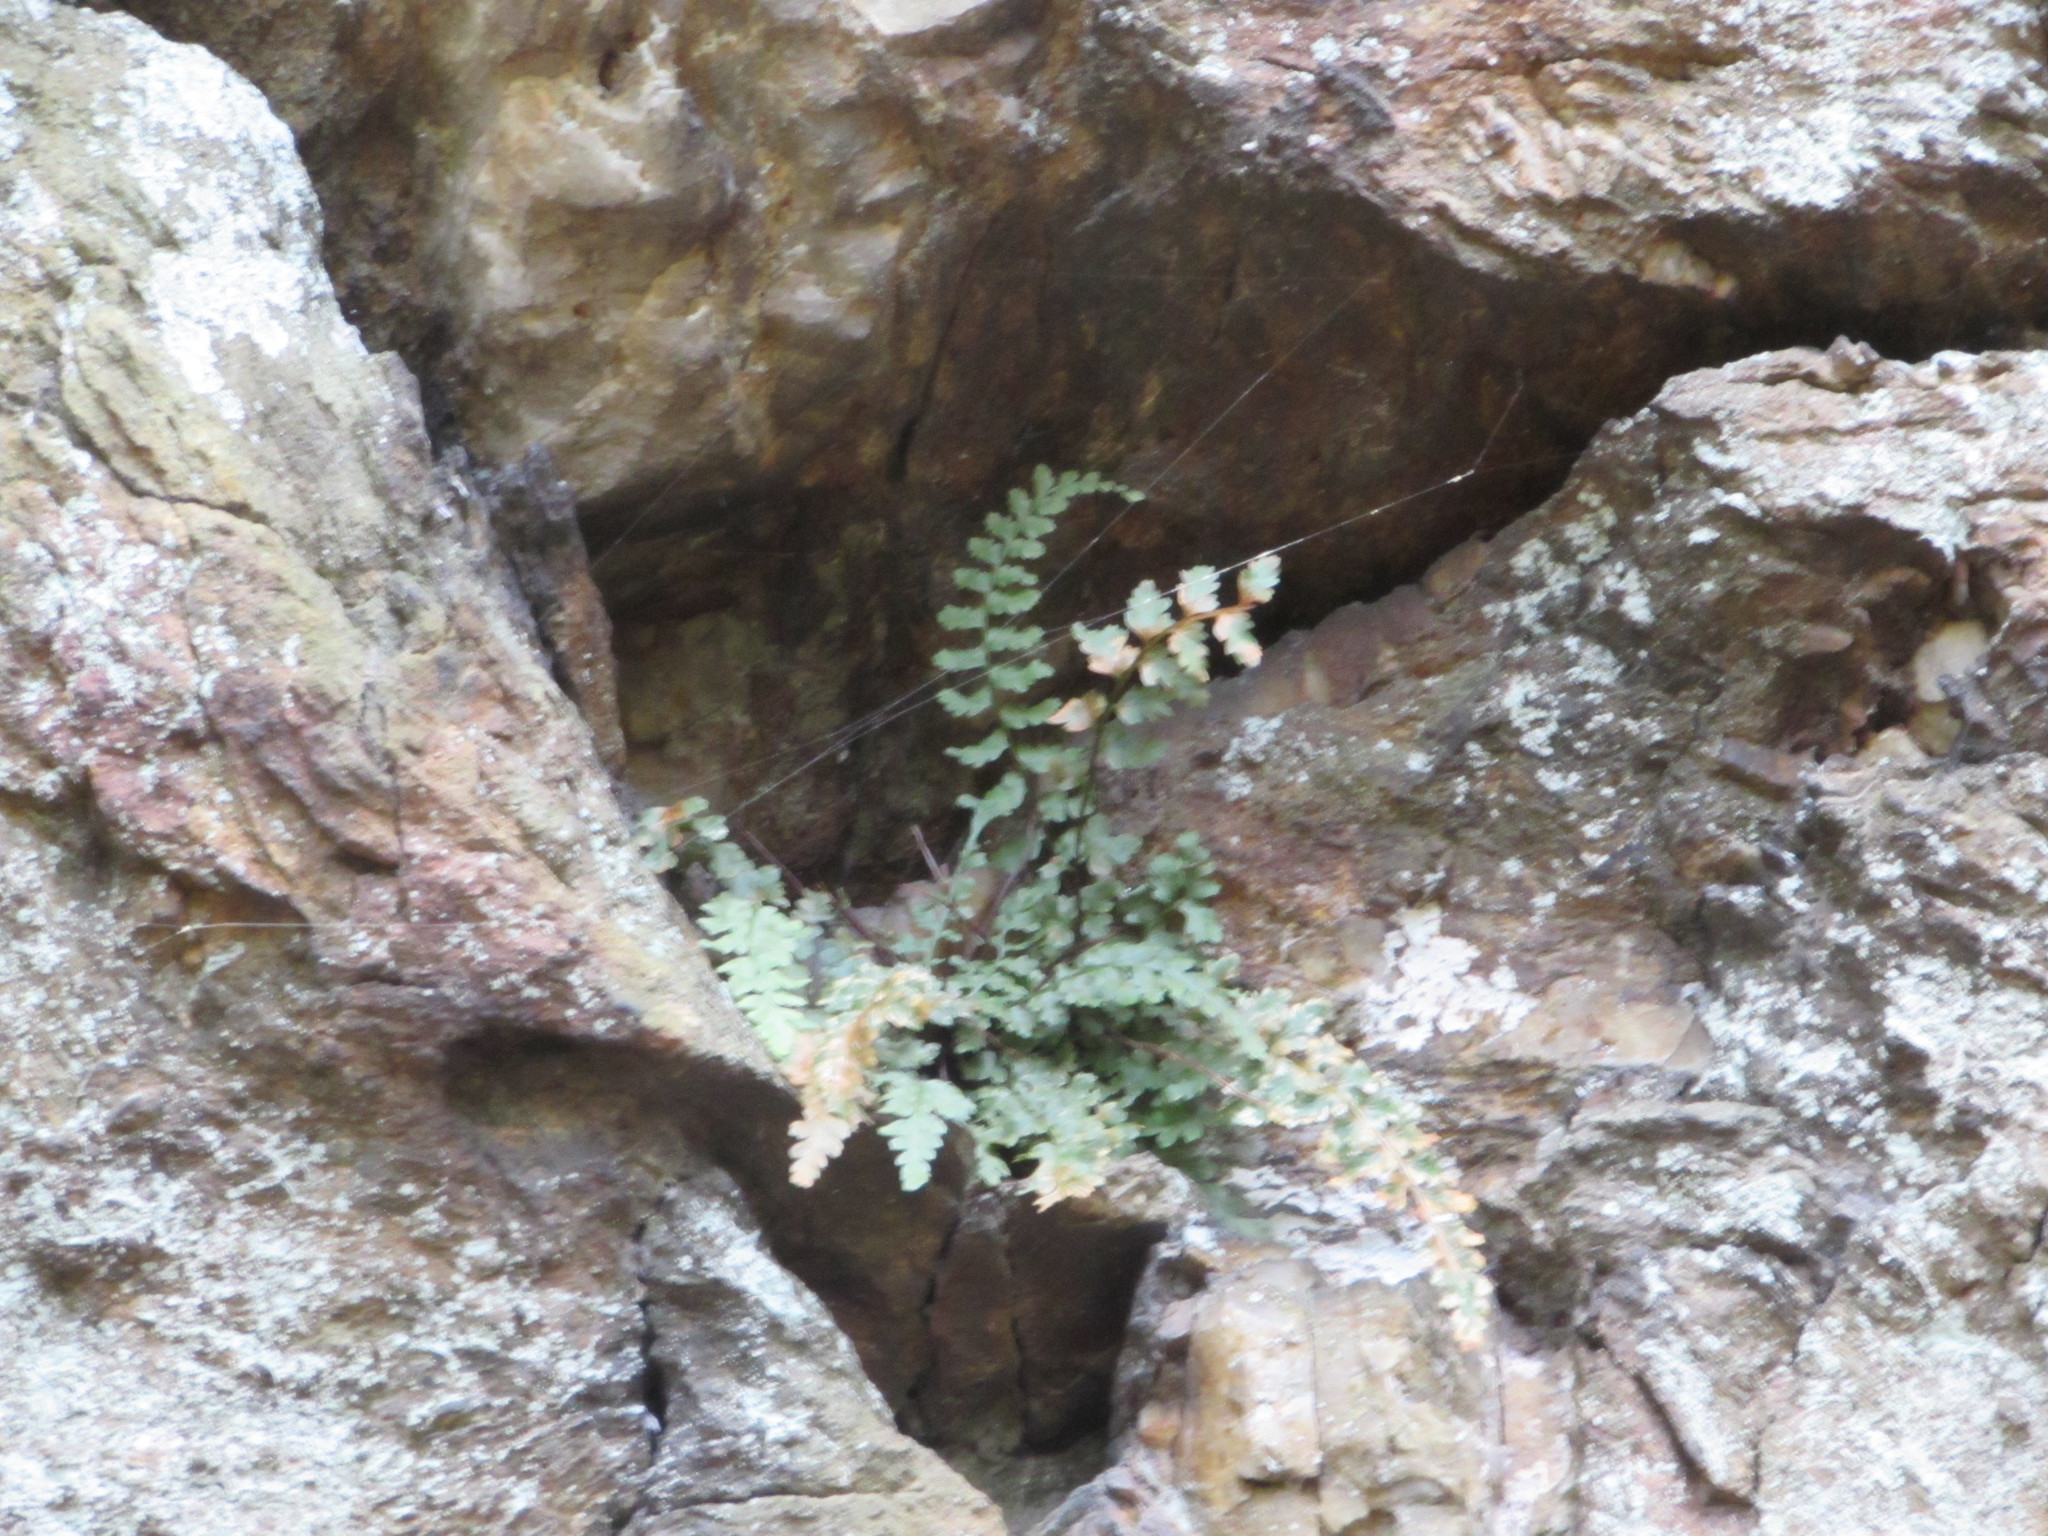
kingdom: Plantae
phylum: Tracheophyta
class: Polypodiopsida
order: Polypodiales
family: Aspleniaceae
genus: Asplenium
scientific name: Asplenium bradleyi
